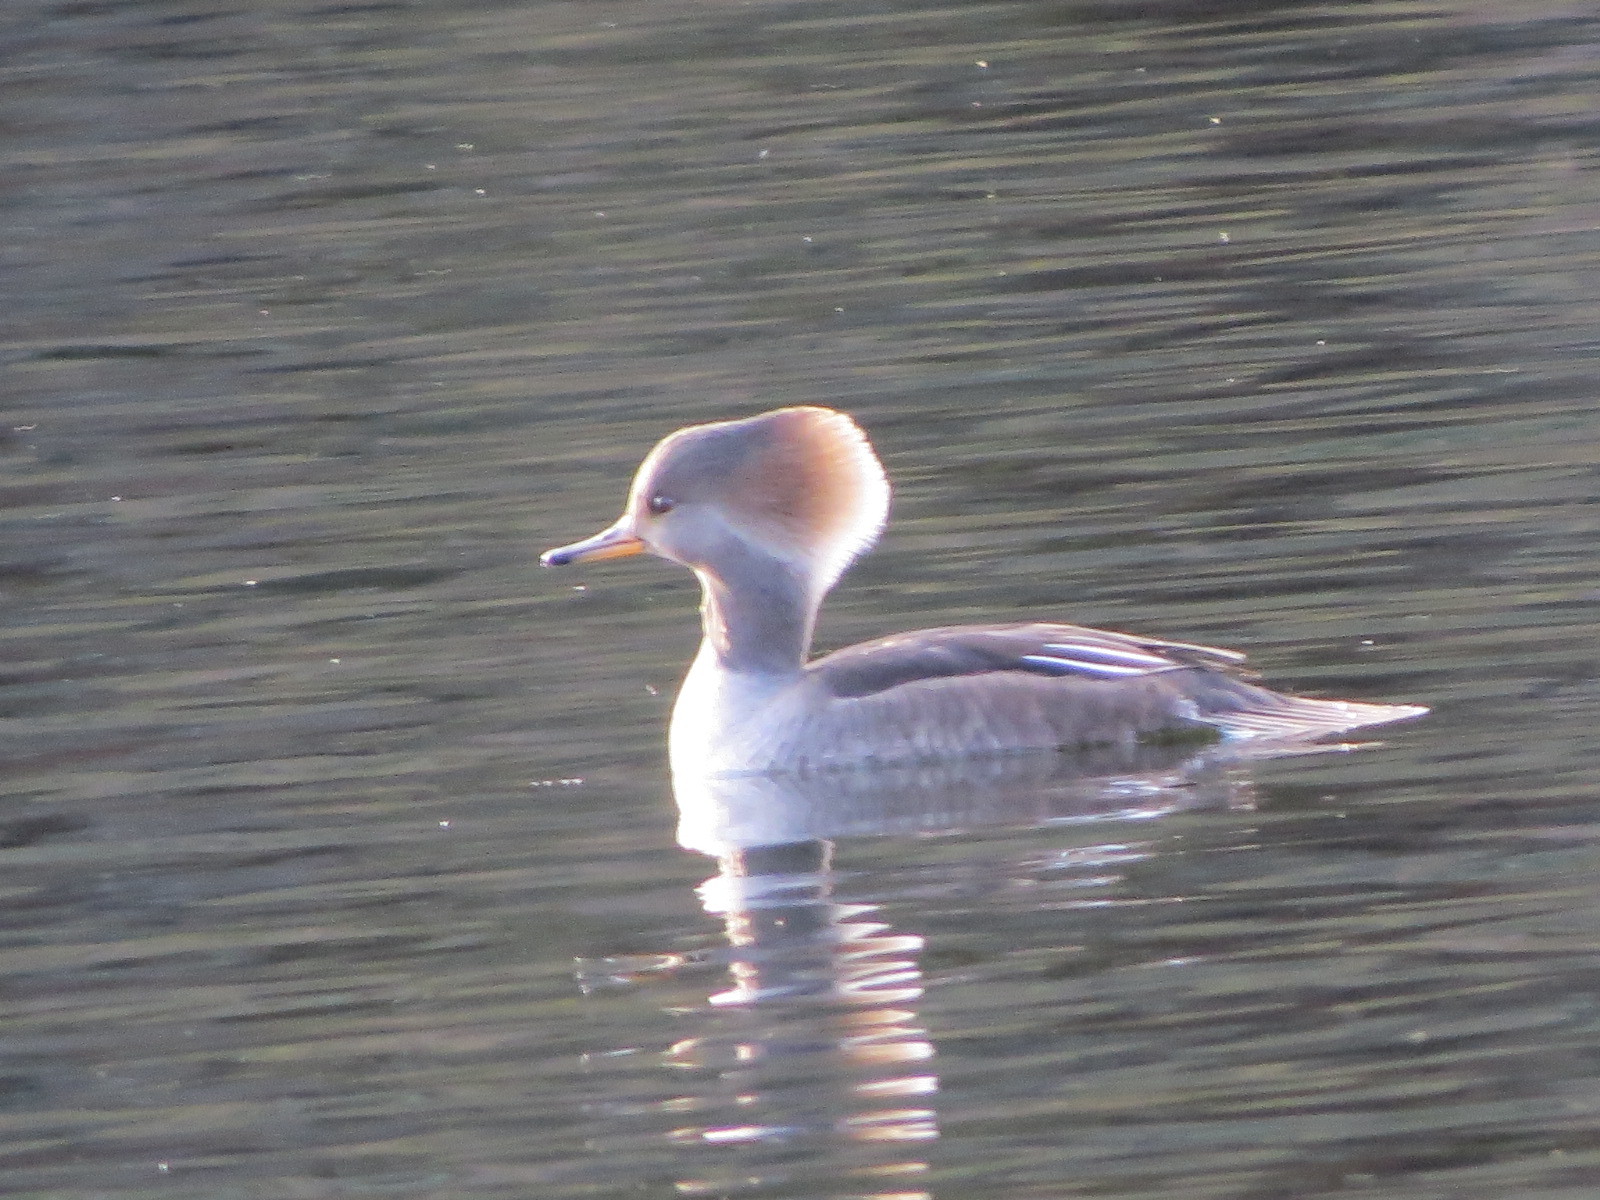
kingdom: Animalia
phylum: Chordata
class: Aves
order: Anseriformes
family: Anatidae
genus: Lophodytes
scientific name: Lophodytes cucullatus
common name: Hooded merganser
